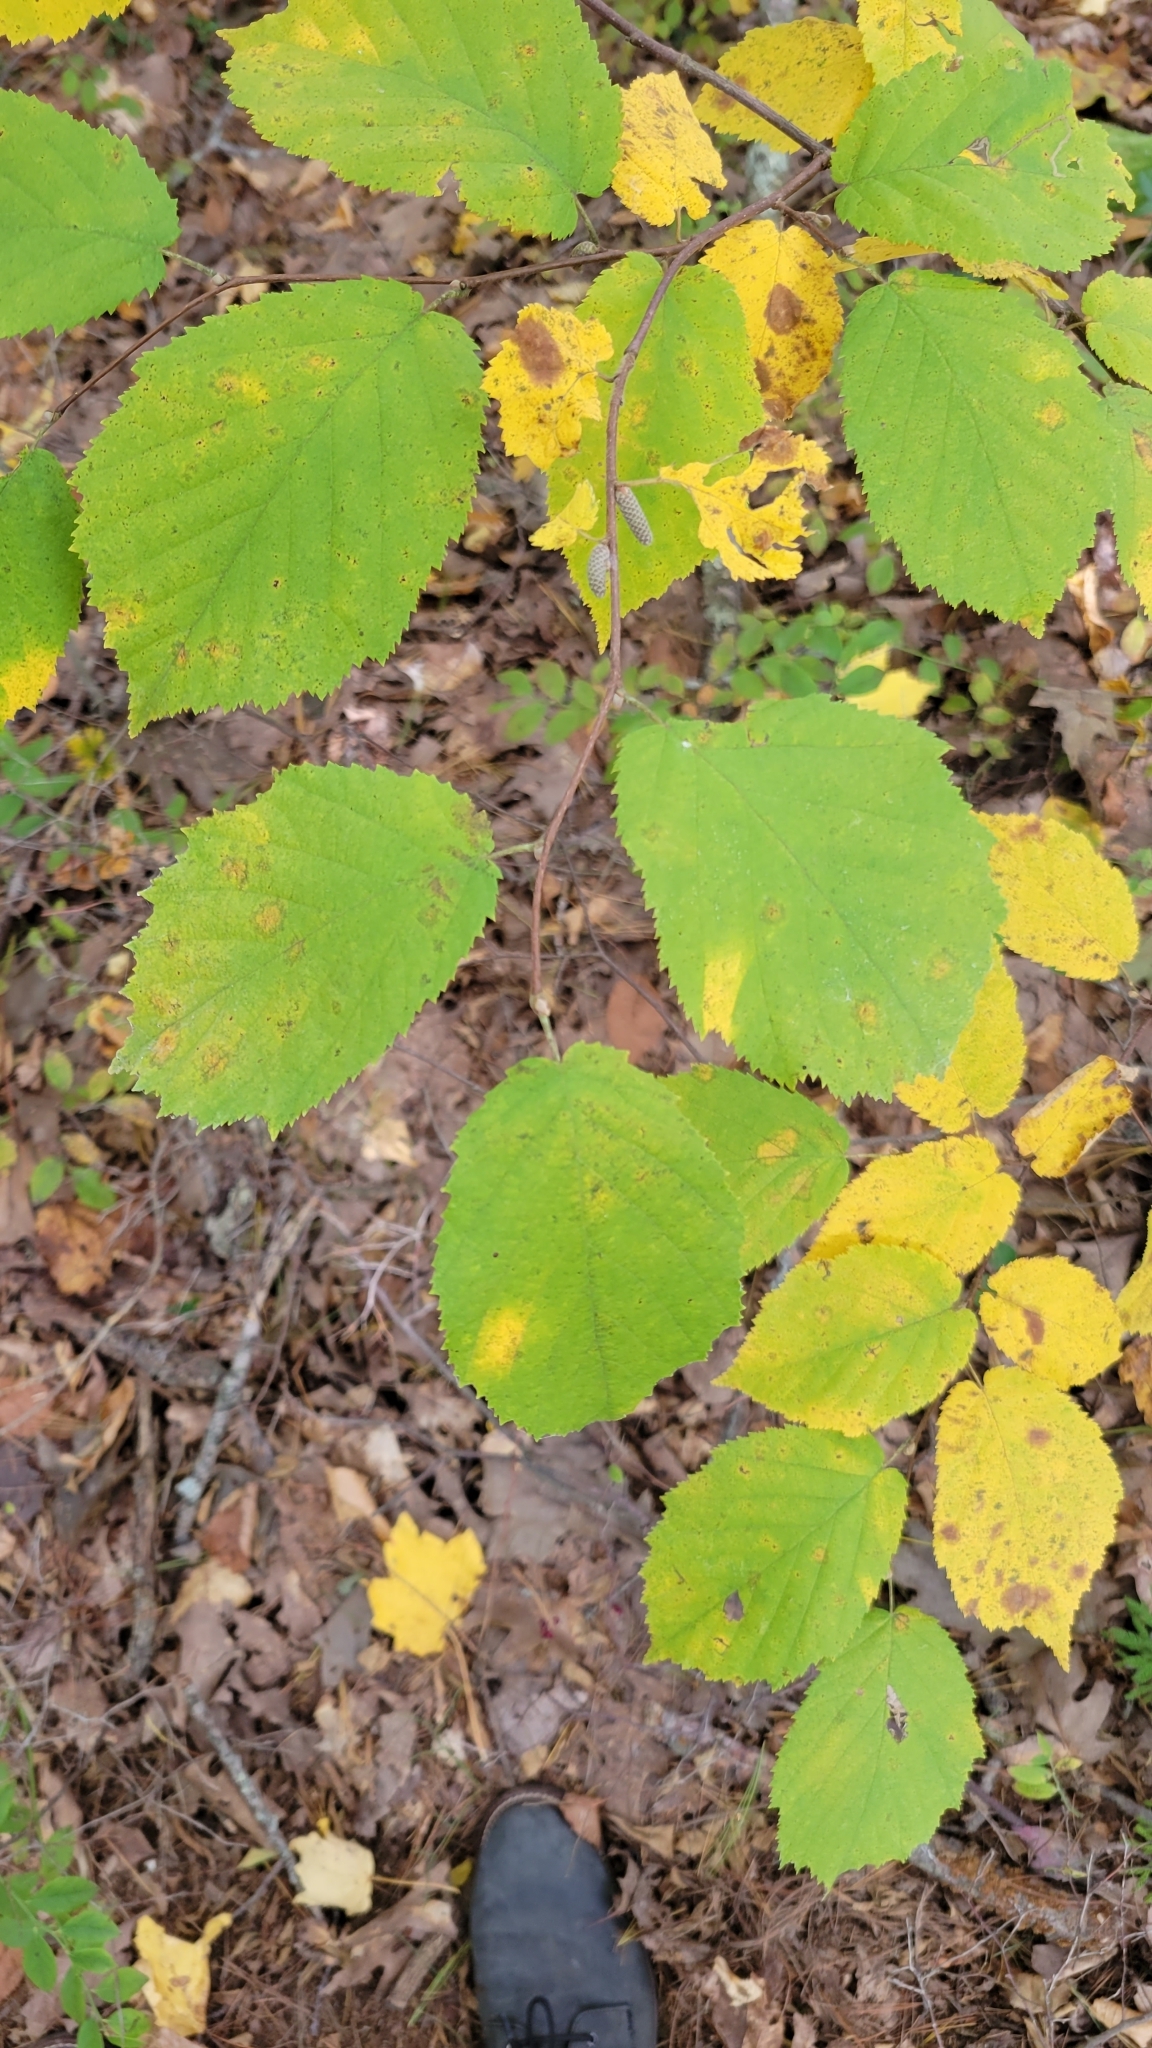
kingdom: Plantae
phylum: Tracheophyta
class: Magnoliopsida
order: Fagales
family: Betulaceae
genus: Corylus
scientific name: Corylus cornuta
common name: Beaked hazel
